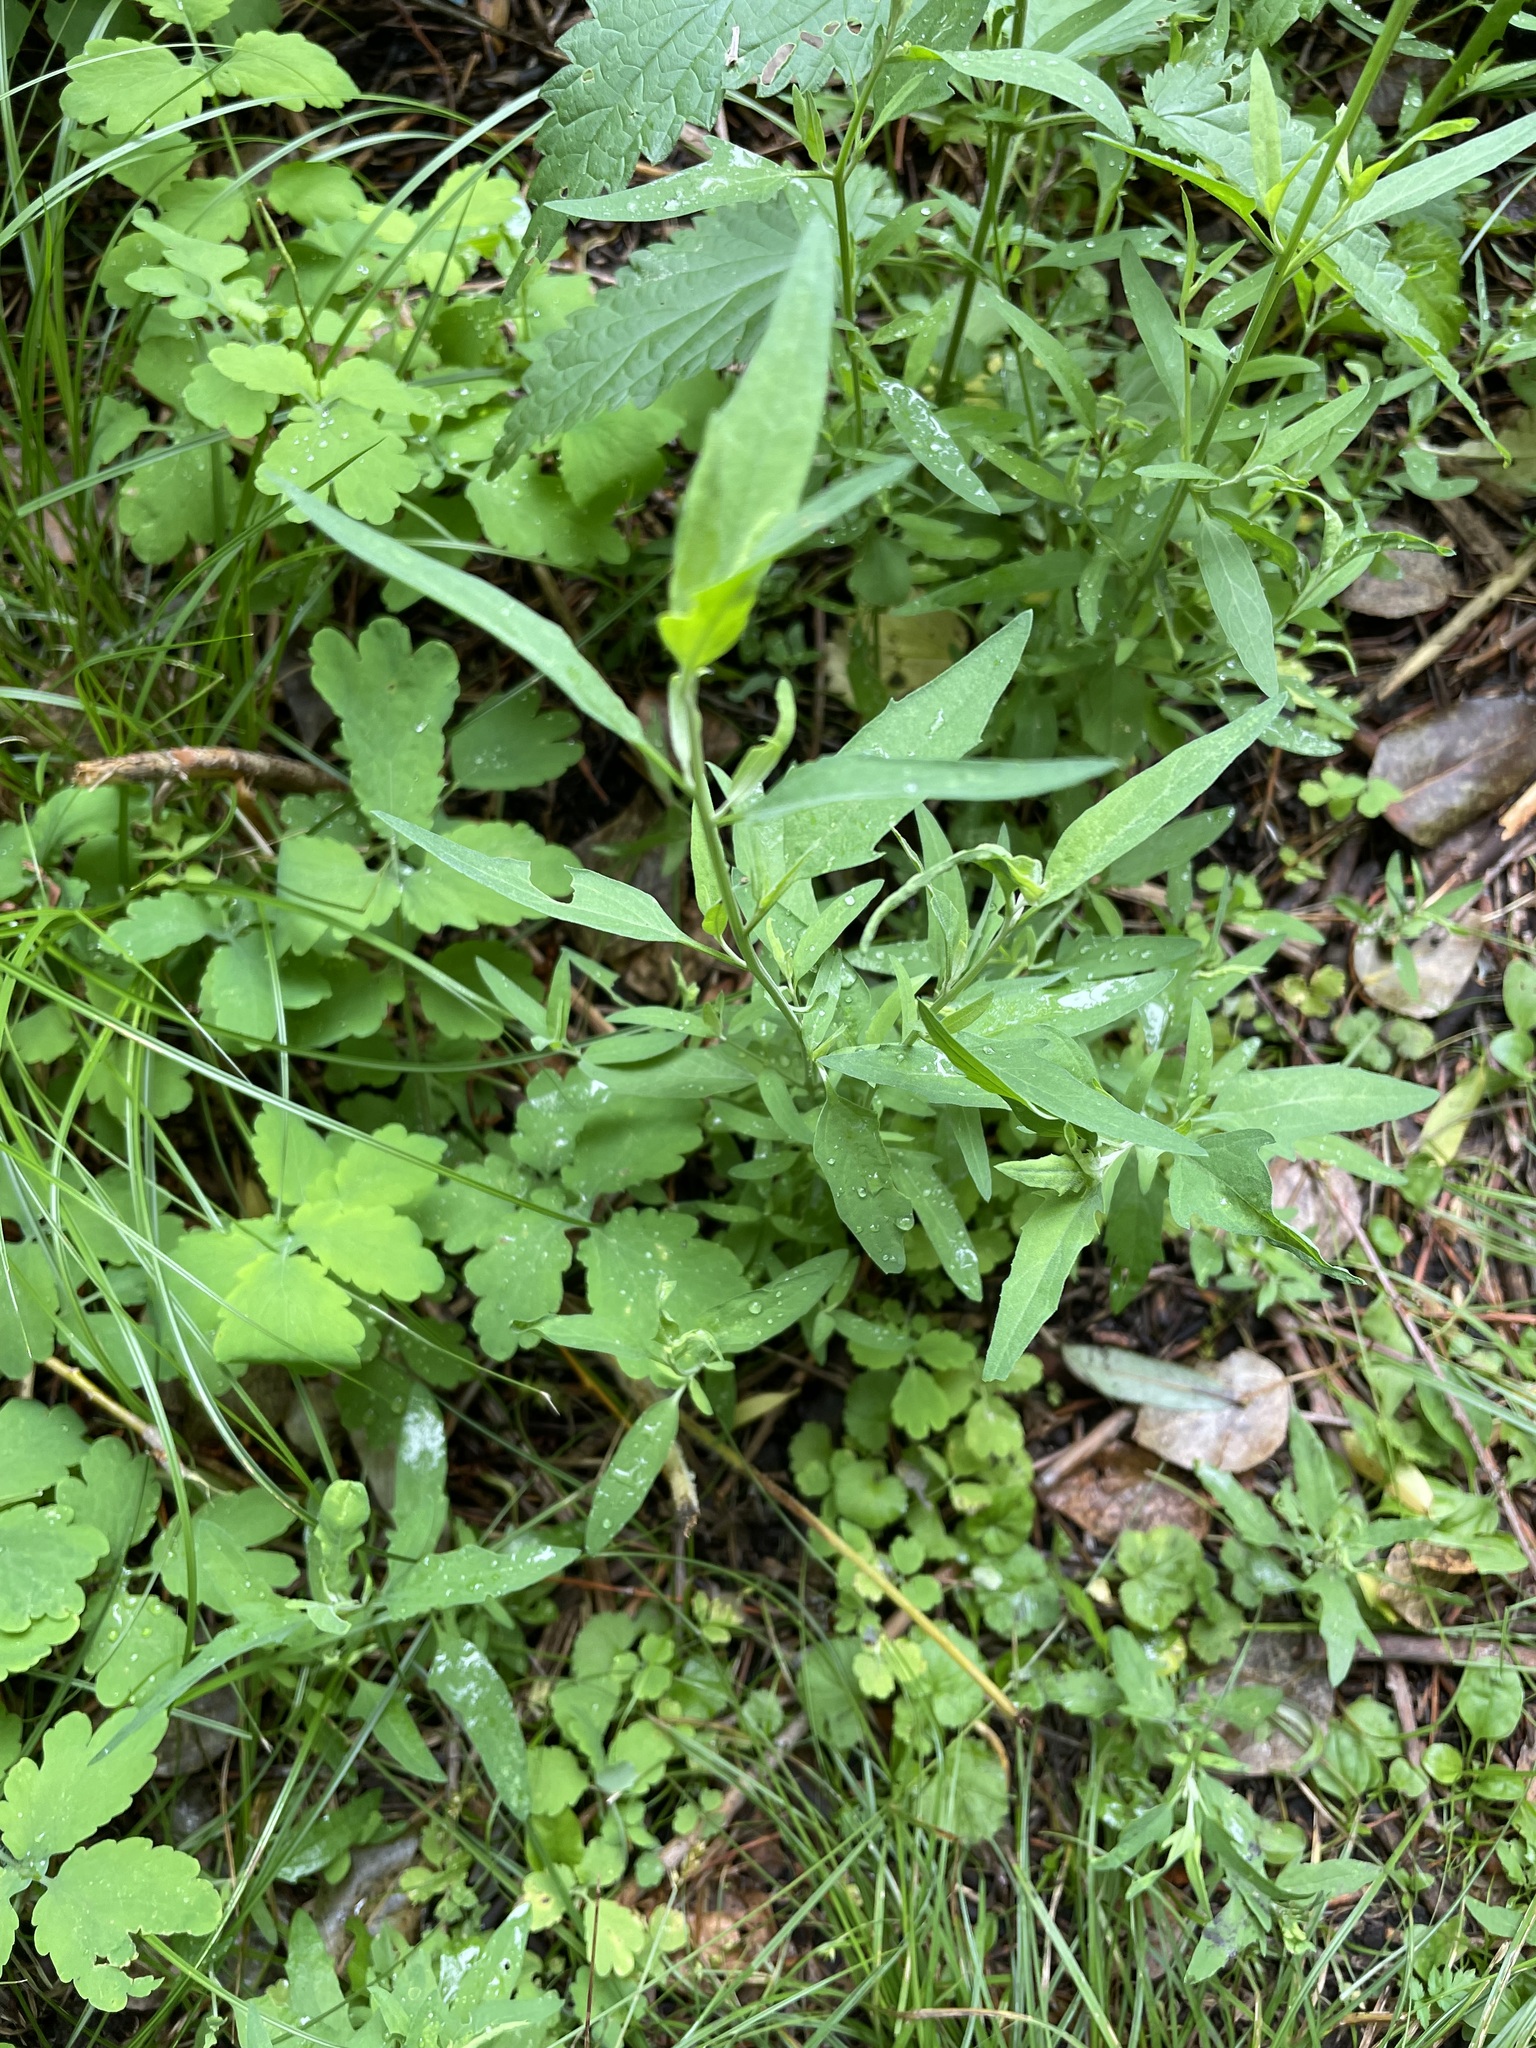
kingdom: Plantae
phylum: Tracheophyta
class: Magnoliopsida
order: Caryophyllales
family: Amaranthaceae
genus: Atriplex
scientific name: Atriplex patula
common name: Common orache
